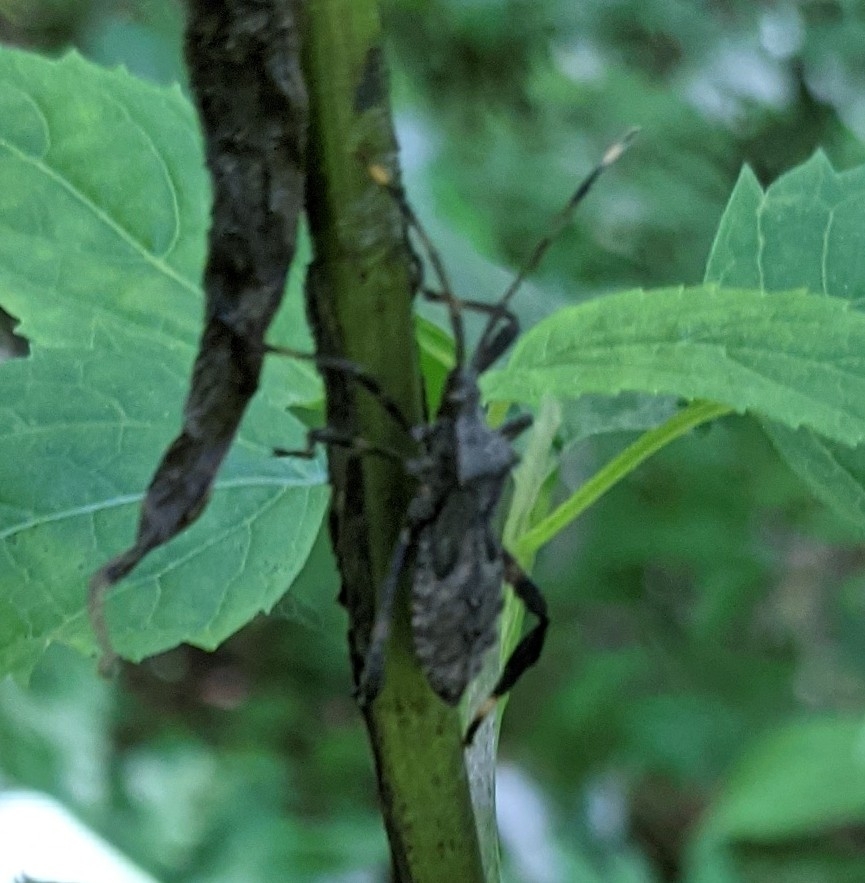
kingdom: Animalia
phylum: Arthropoda
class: Insecta
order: Hemiptera
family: Coreidae
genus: Acanthocephala
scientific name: Acanthocephala terminalis
